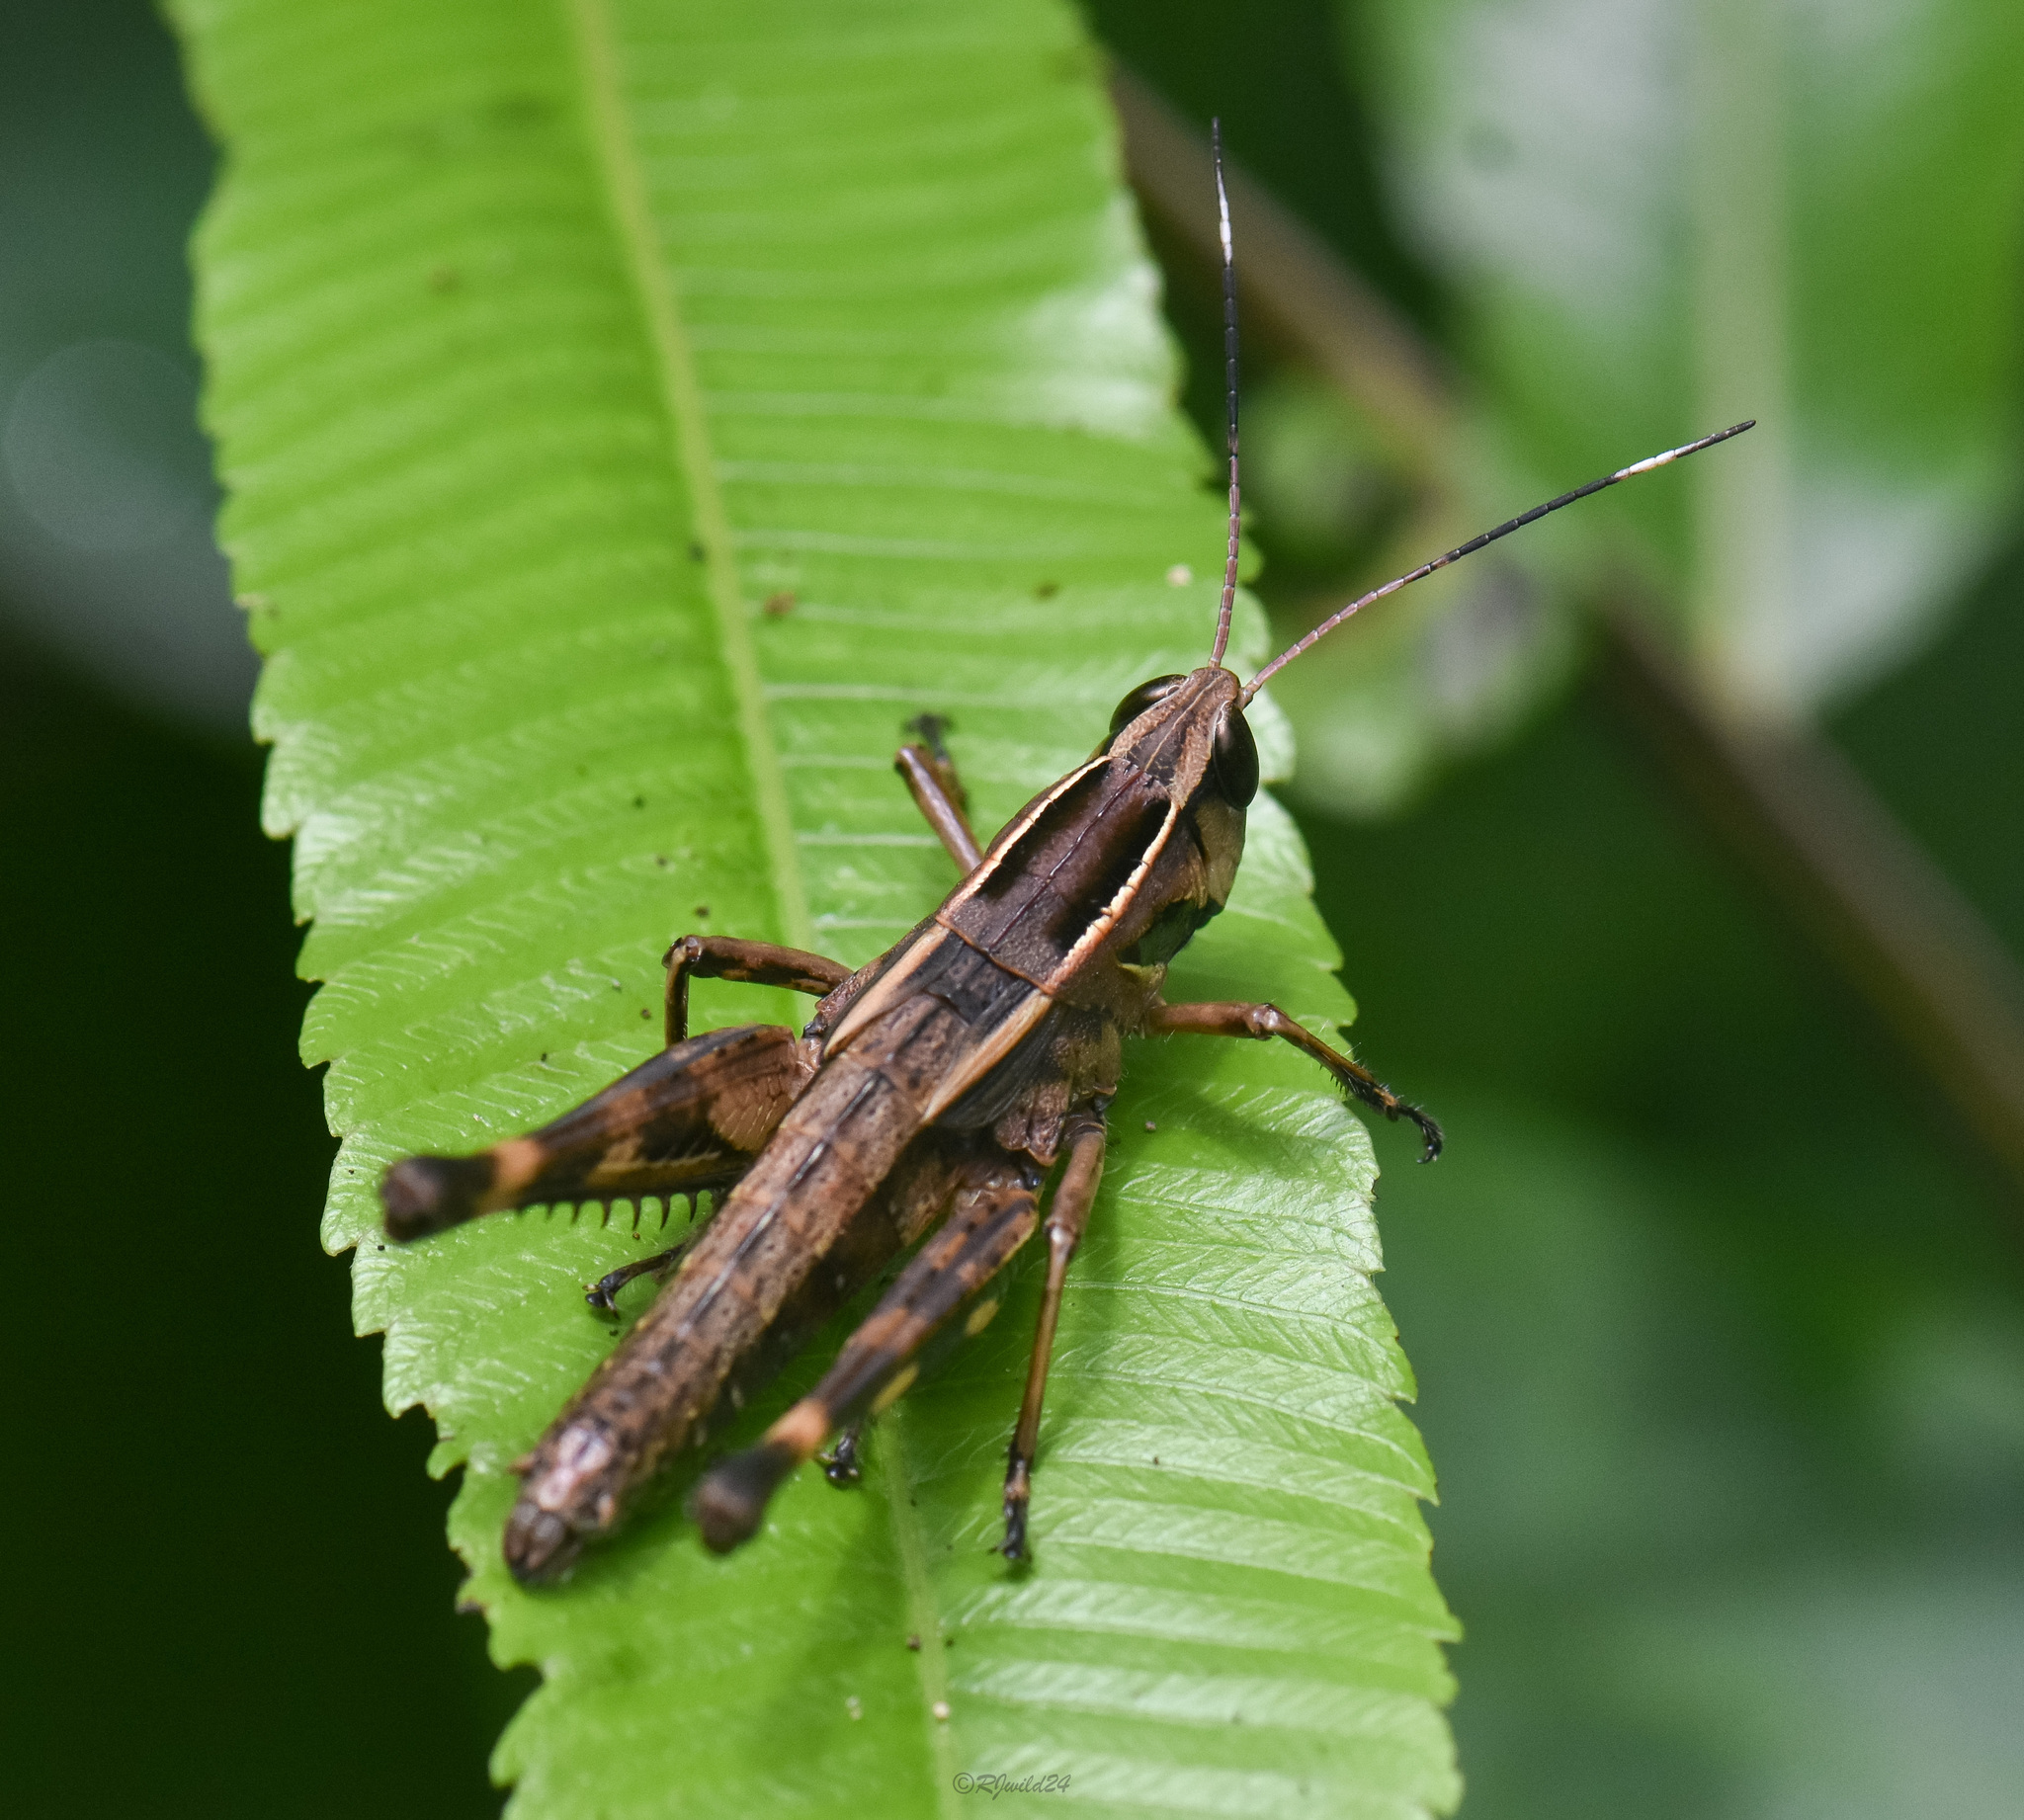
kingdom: Animalia
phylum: Arthropoda
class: Insecta
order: Orthoptera
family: Acrididae
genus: Burmacris
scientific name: Burmacris charlottae
